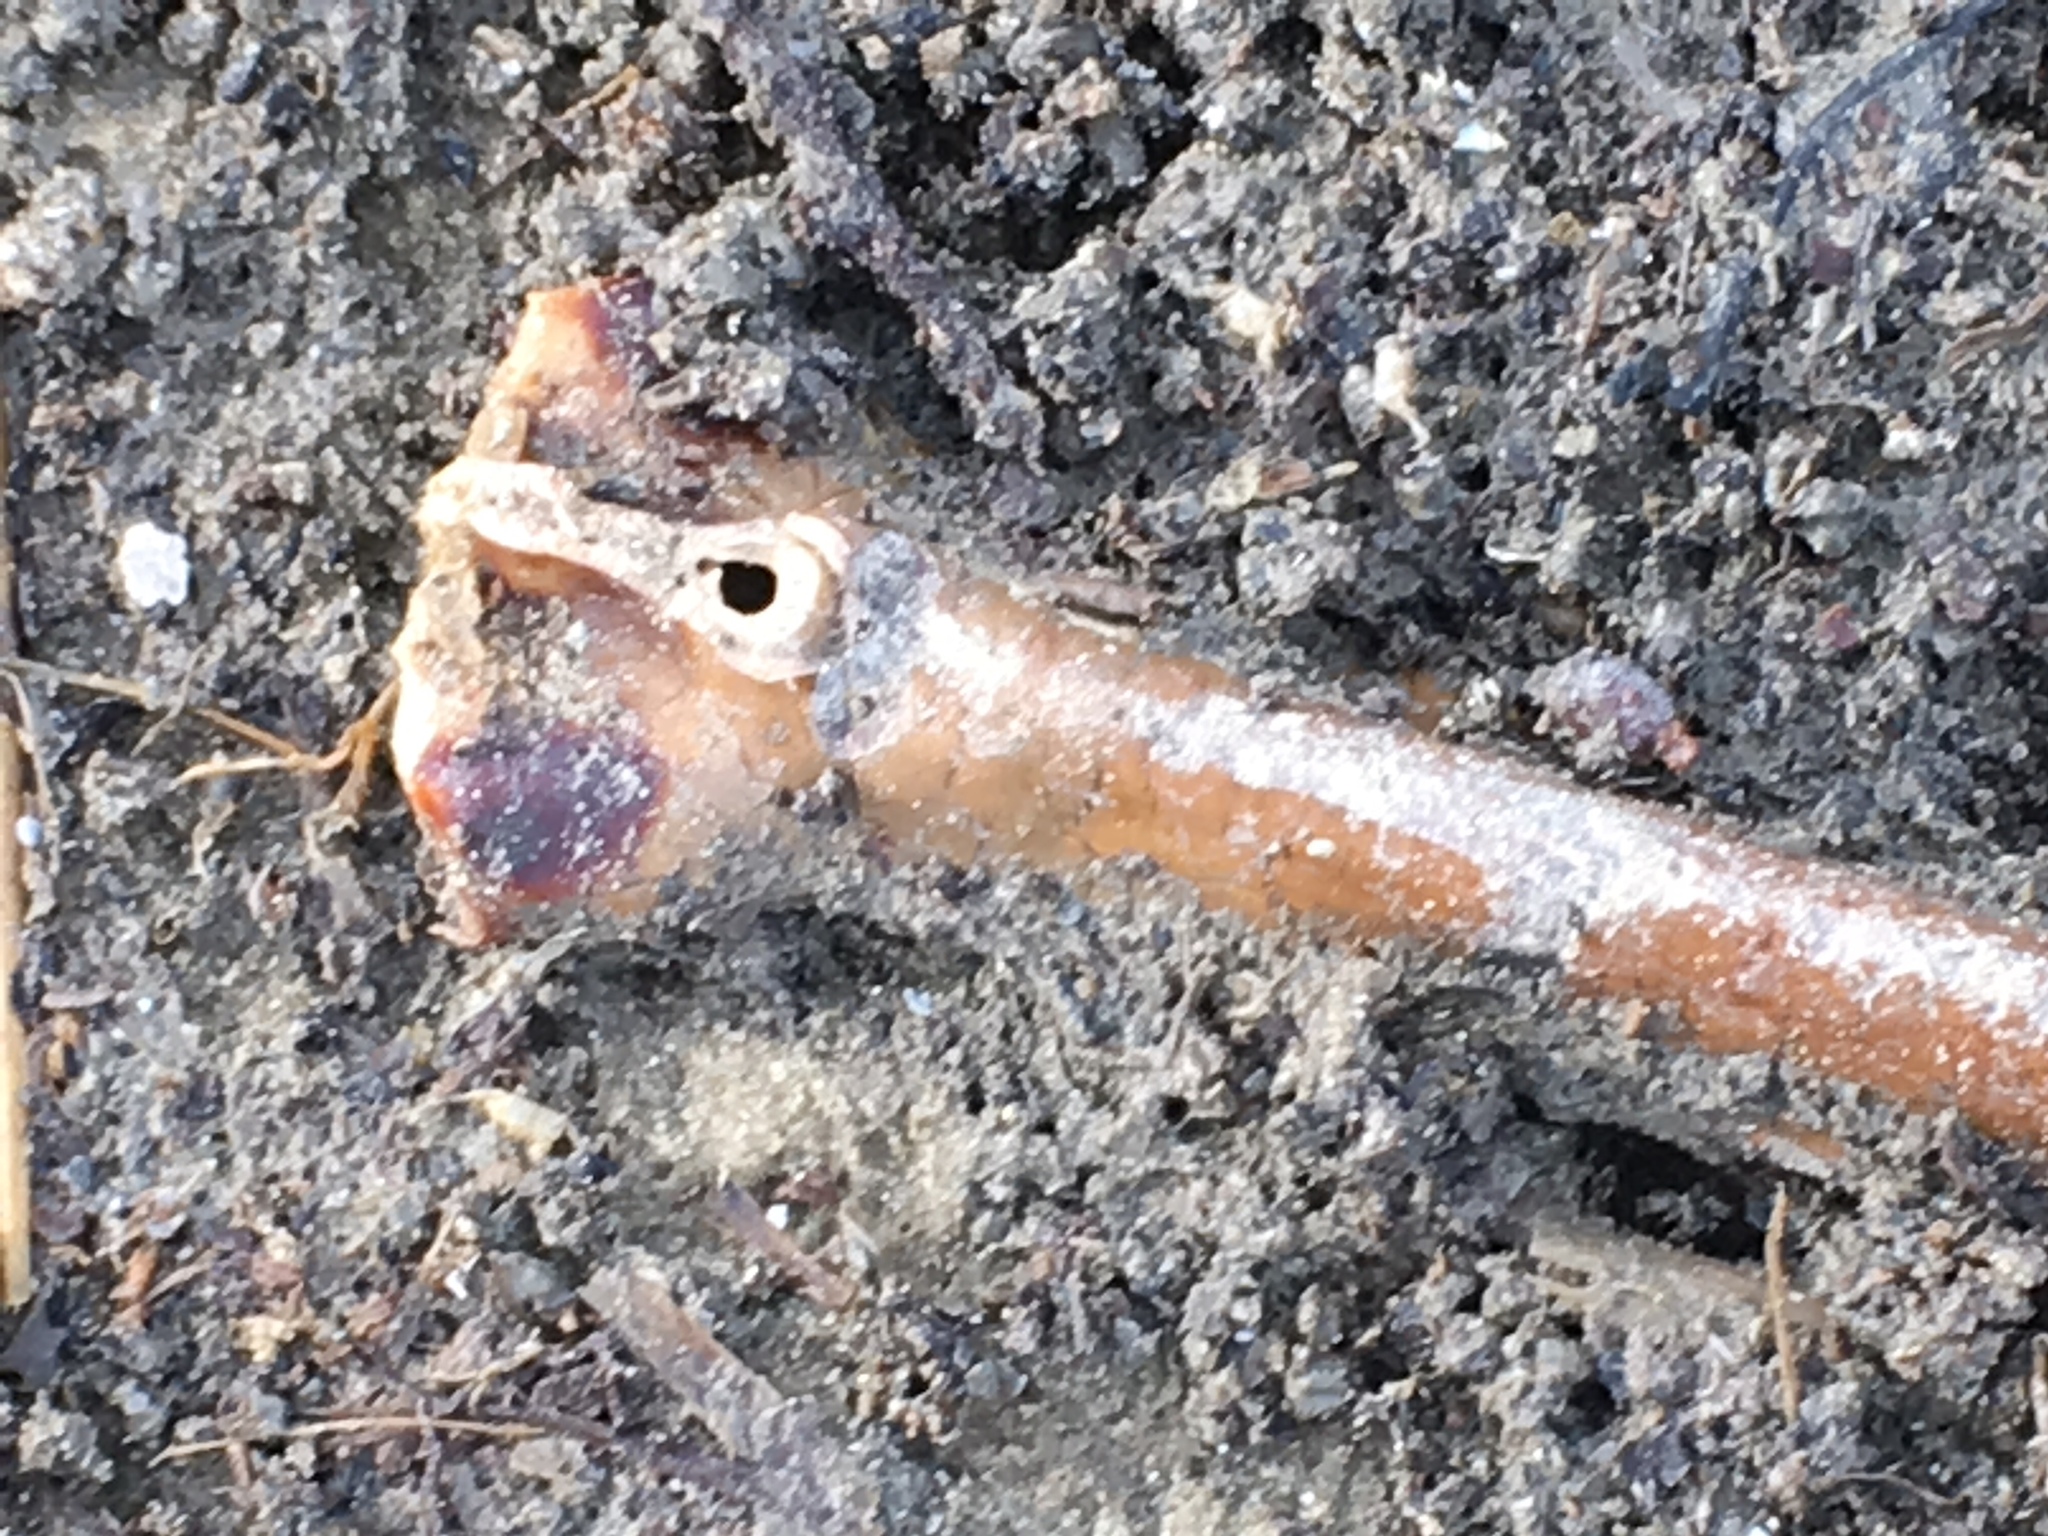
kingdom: Animalia
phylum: Arthropoda
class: Merostomata
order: Xiphosurida
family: Limulidae
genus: Limulus
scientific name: Limulus polyphemus
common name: Horseshoe crab
